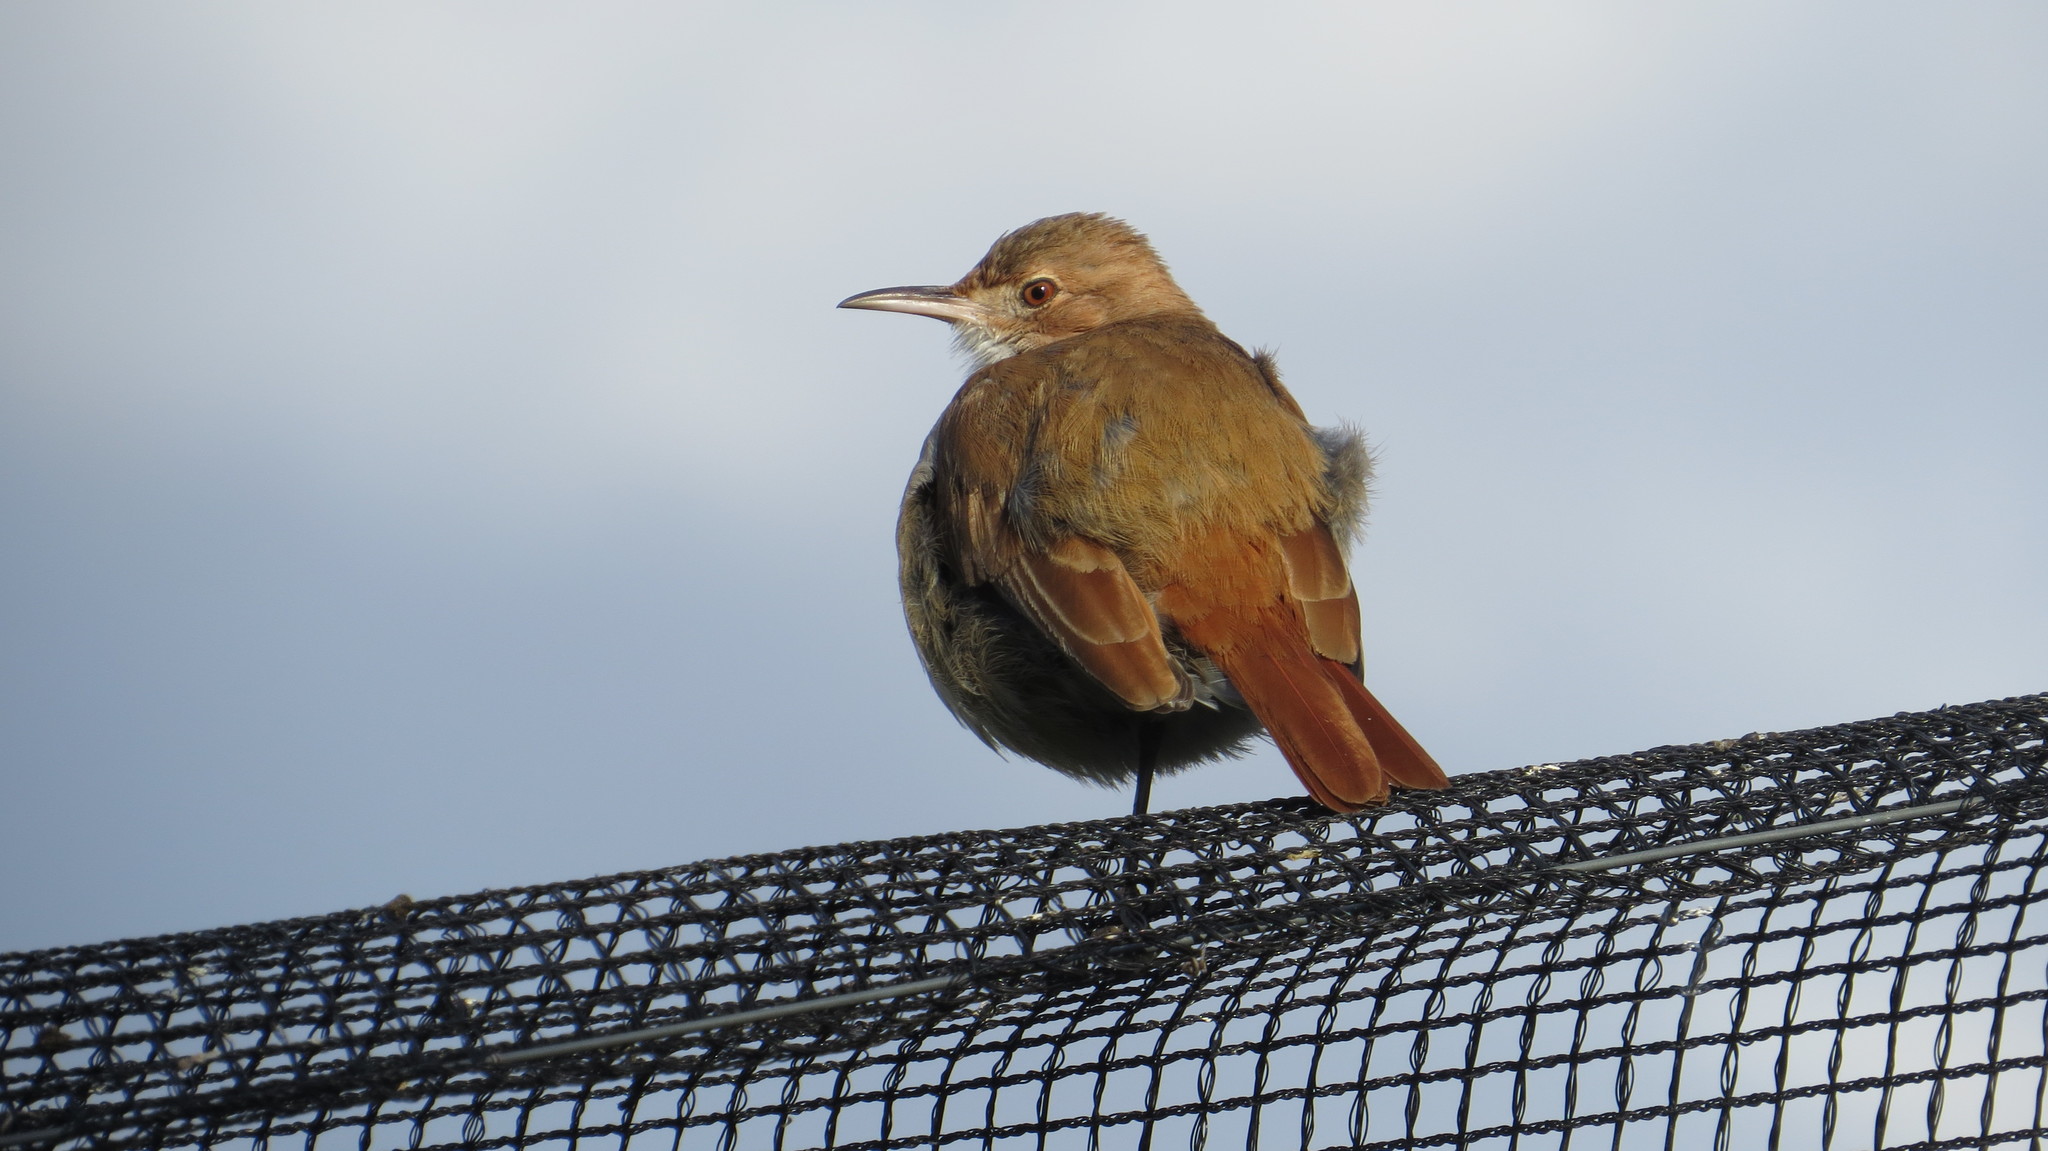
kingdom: Animalia
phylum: Chordata
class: Aves
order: Passeriformes
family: Furnariidae
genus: Furnarius
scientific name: Furnarius rufus
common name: Rufous hornero
